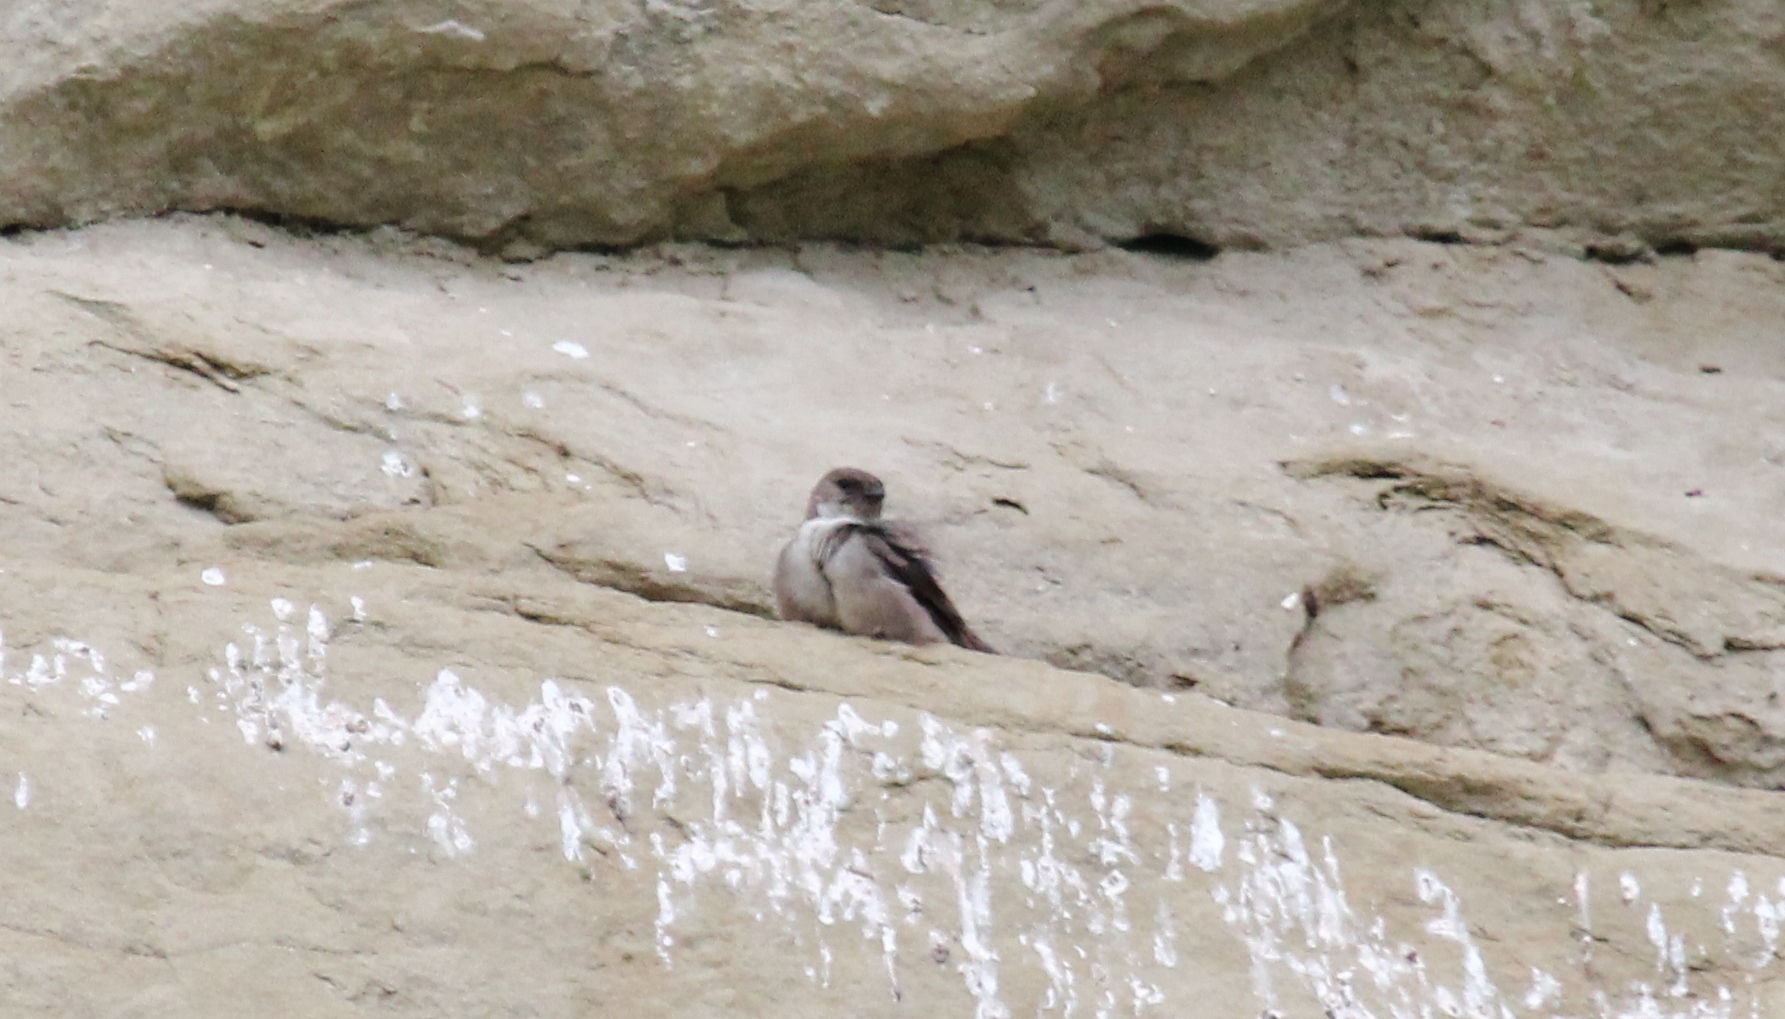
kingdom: Animalia
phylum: Chordata
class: Aves
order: Passeriformes
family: Hirundinidae
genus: Ptyonoprogne
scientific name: Ptyonoprogne rupestris
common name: Eurasian crag martin
